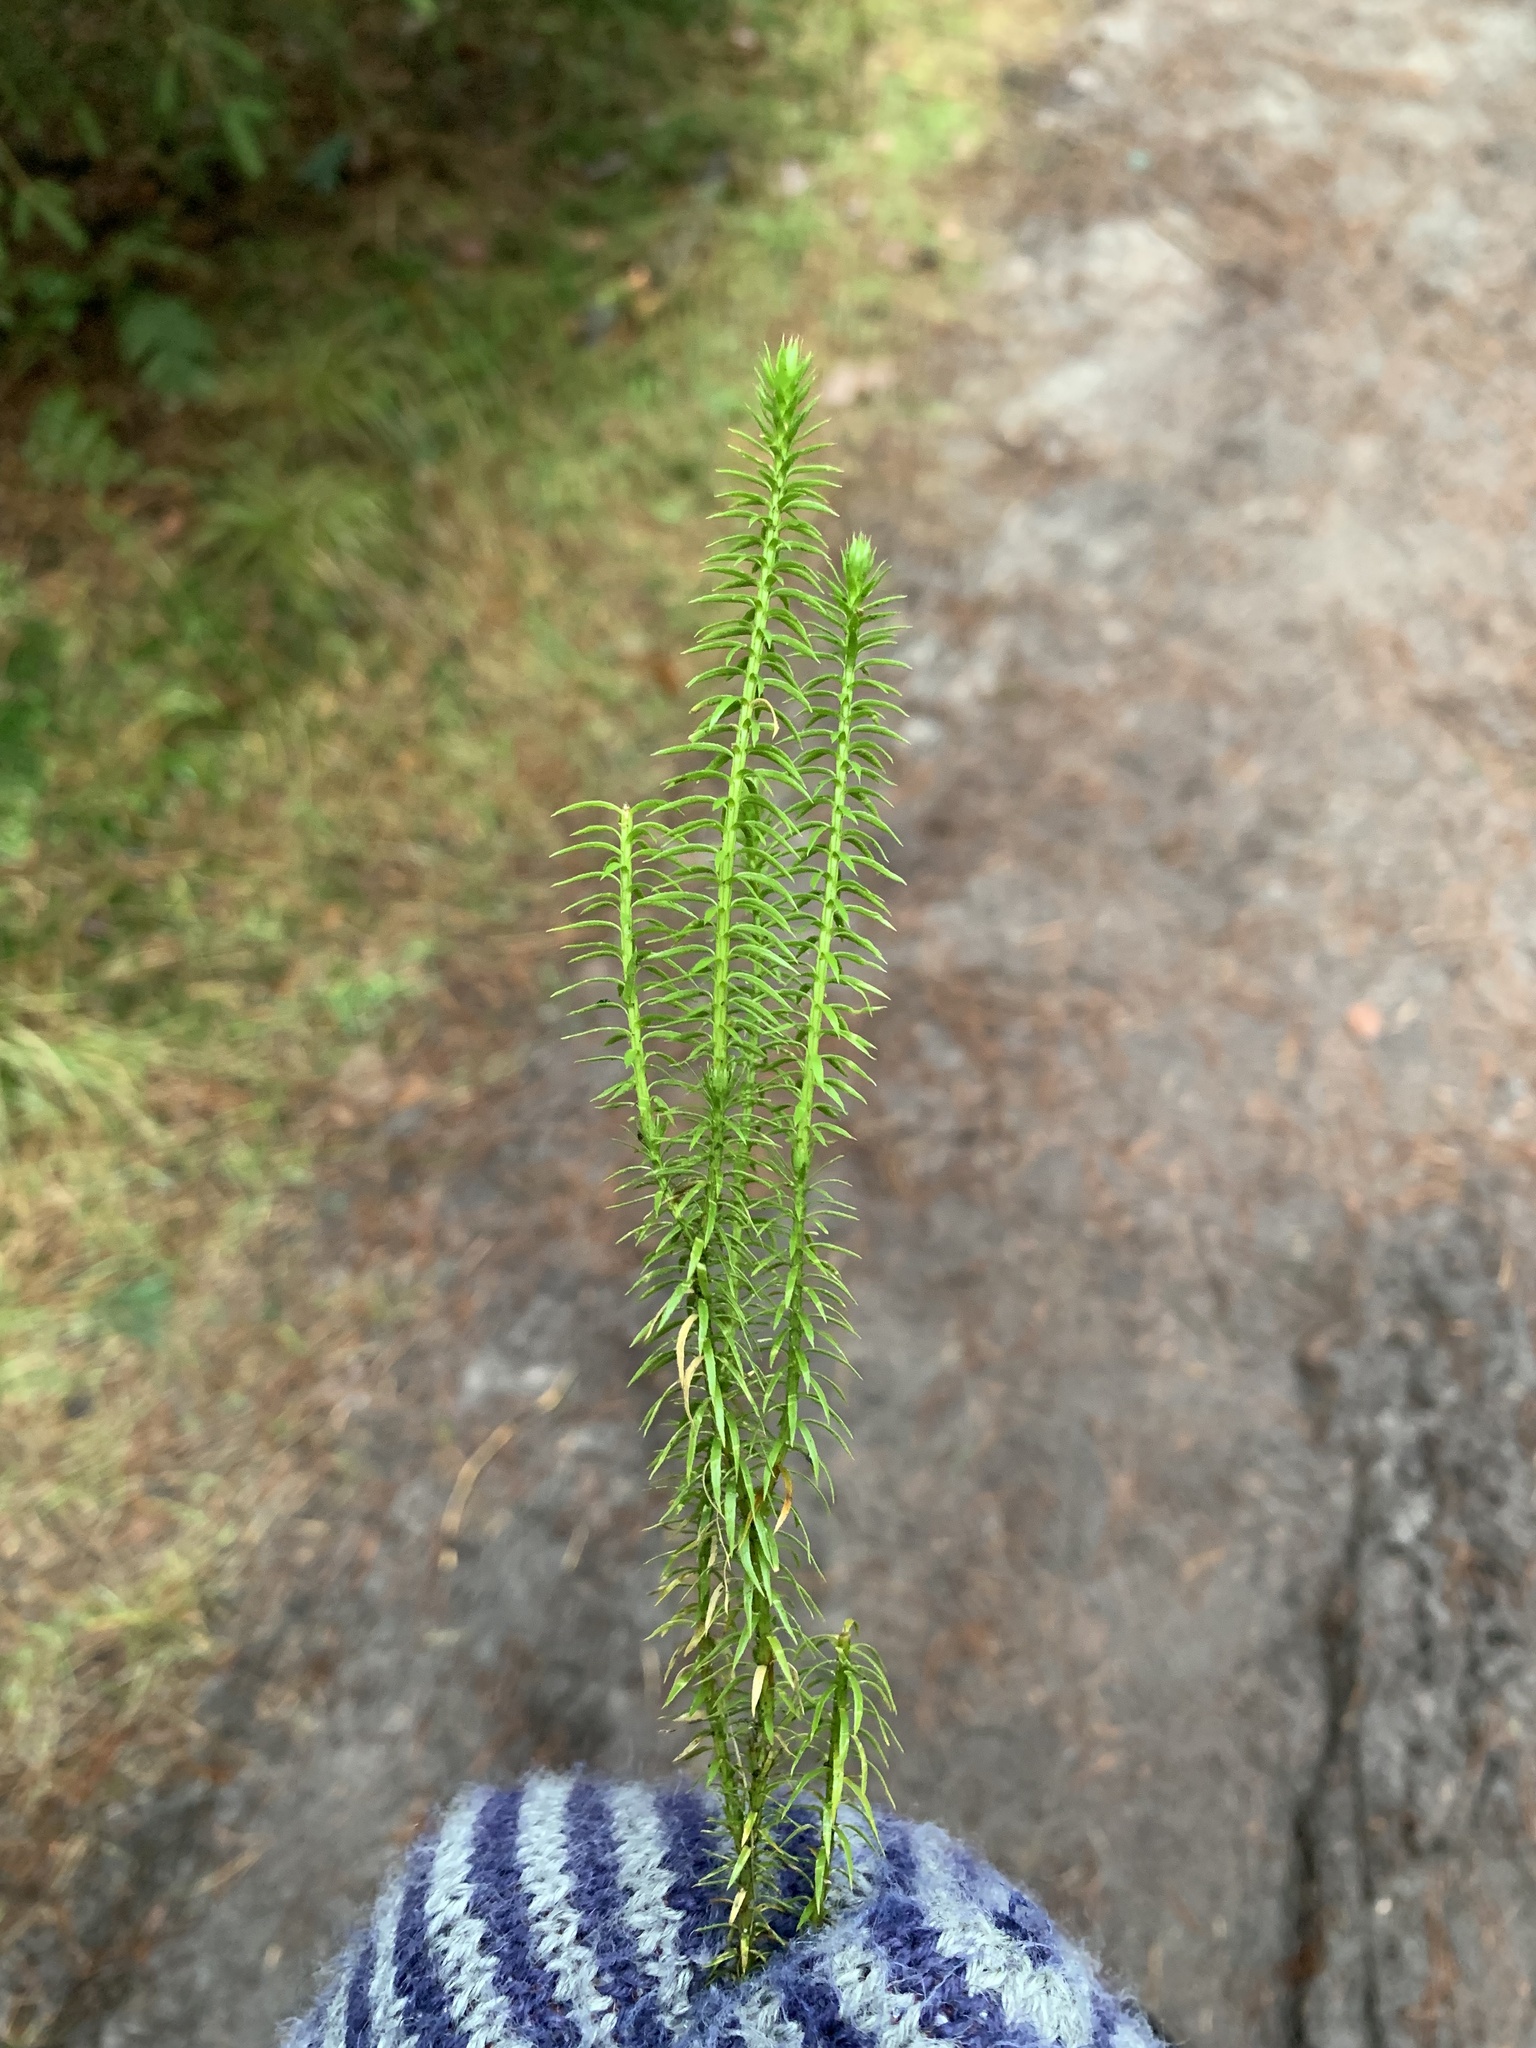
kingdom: Plantae
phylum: Tracheophyta
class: Lycopodiopsida
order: Lycopodiales
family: Lycopodiaceae
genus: Spinulum
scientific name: Spinulum annotinum
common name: Interrupted club-moss
